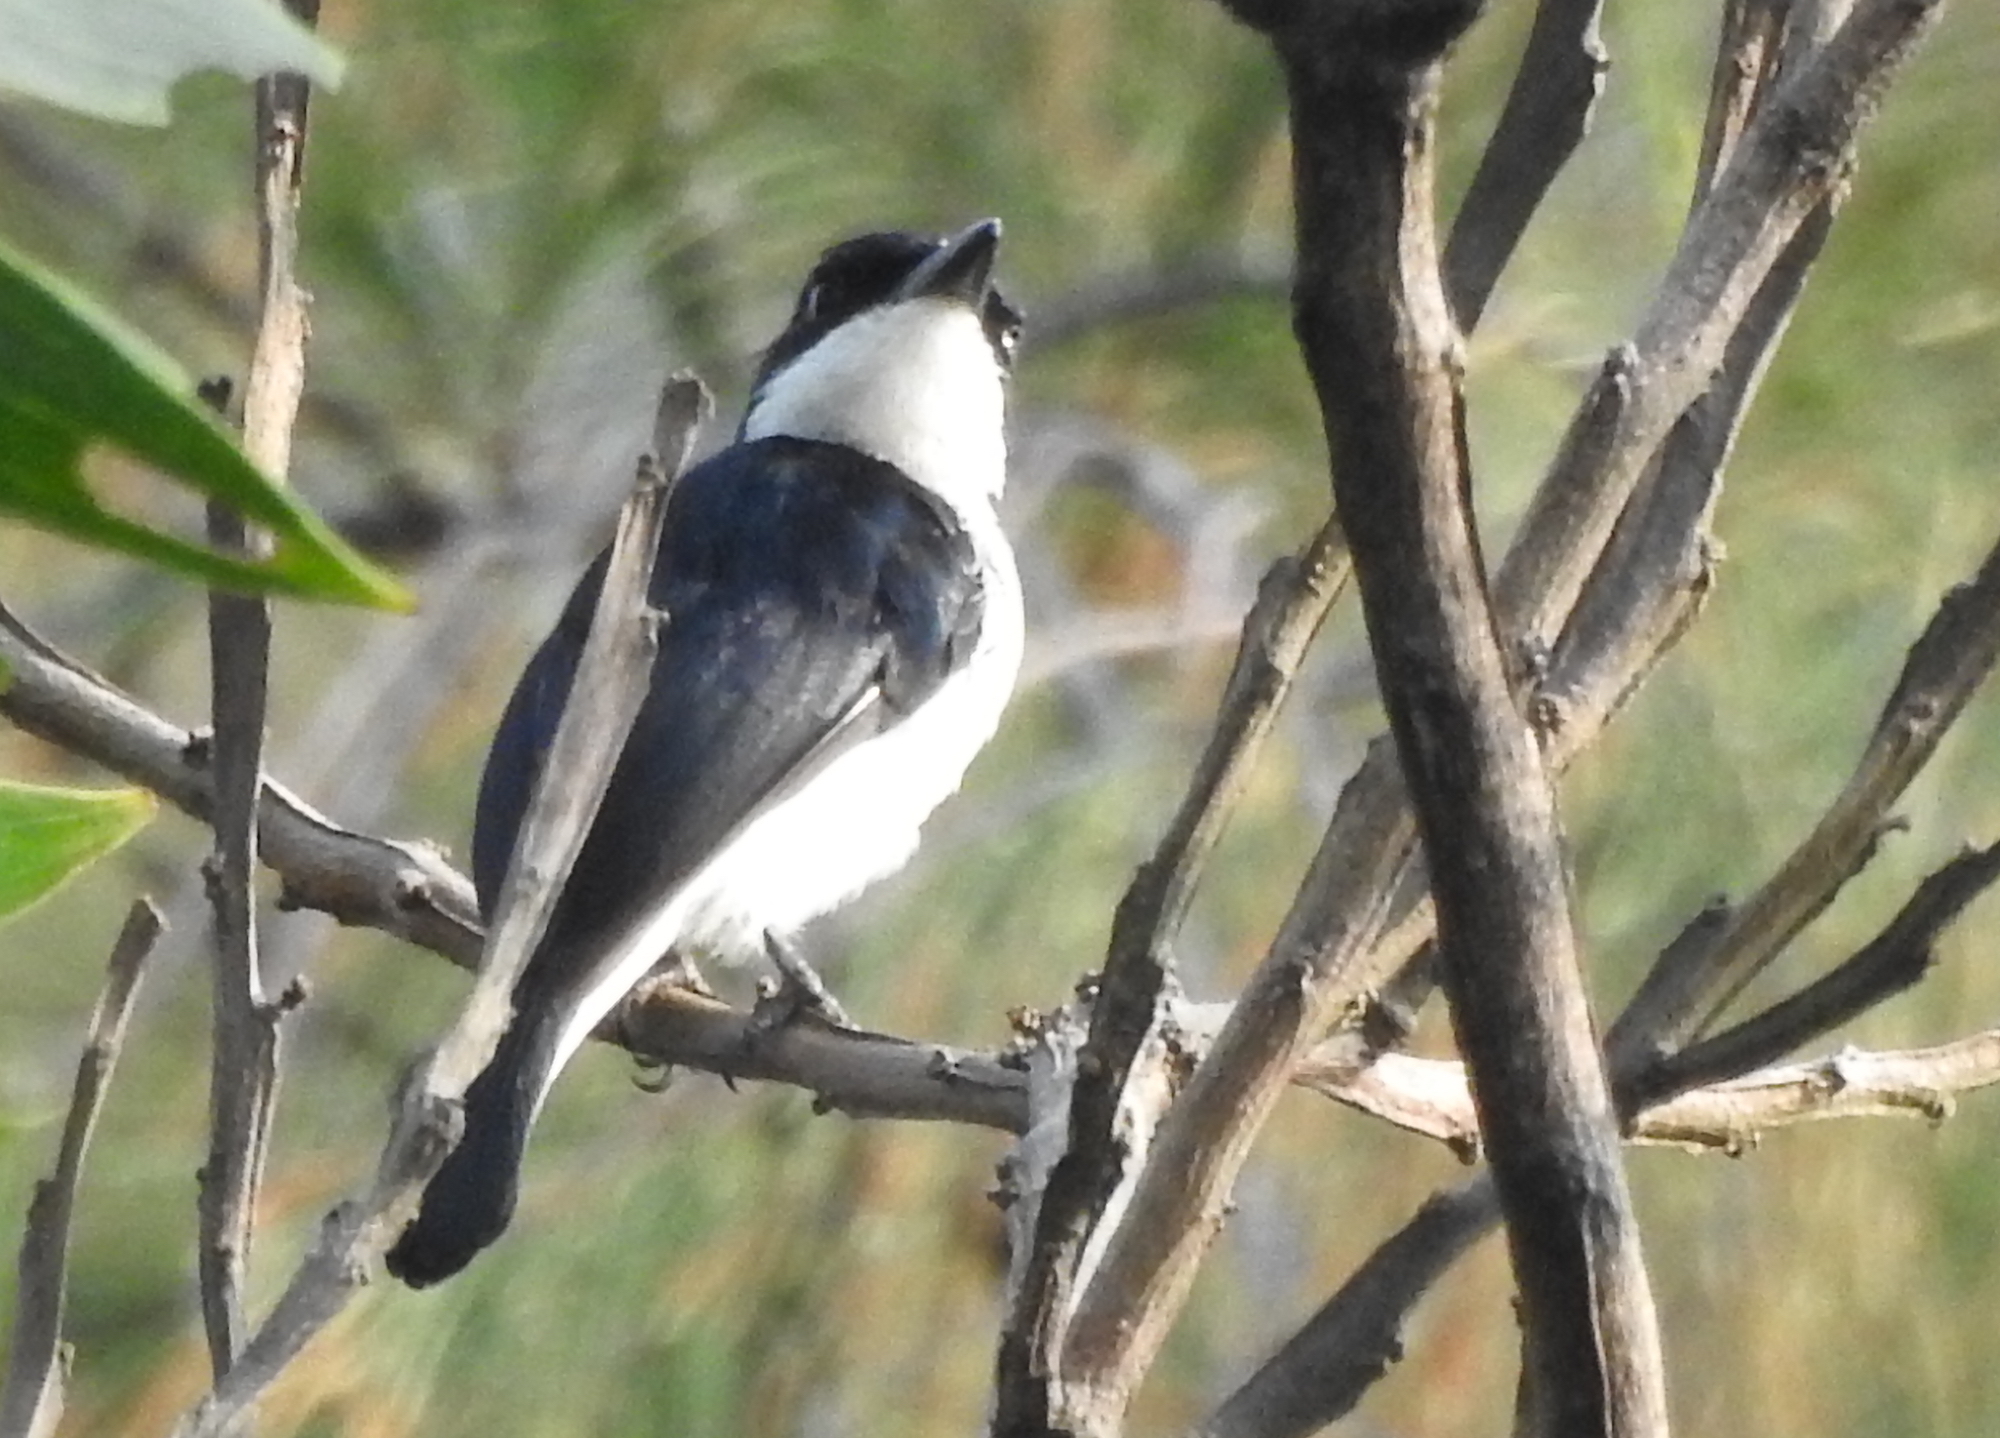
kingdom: Animalia
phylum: Chordata
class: Aves
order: Passeriformes
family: Tephrodornithidae
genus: Hemipus
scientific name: Hemipus hirundinaceus
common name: Black-winged flycatcher-shrike
